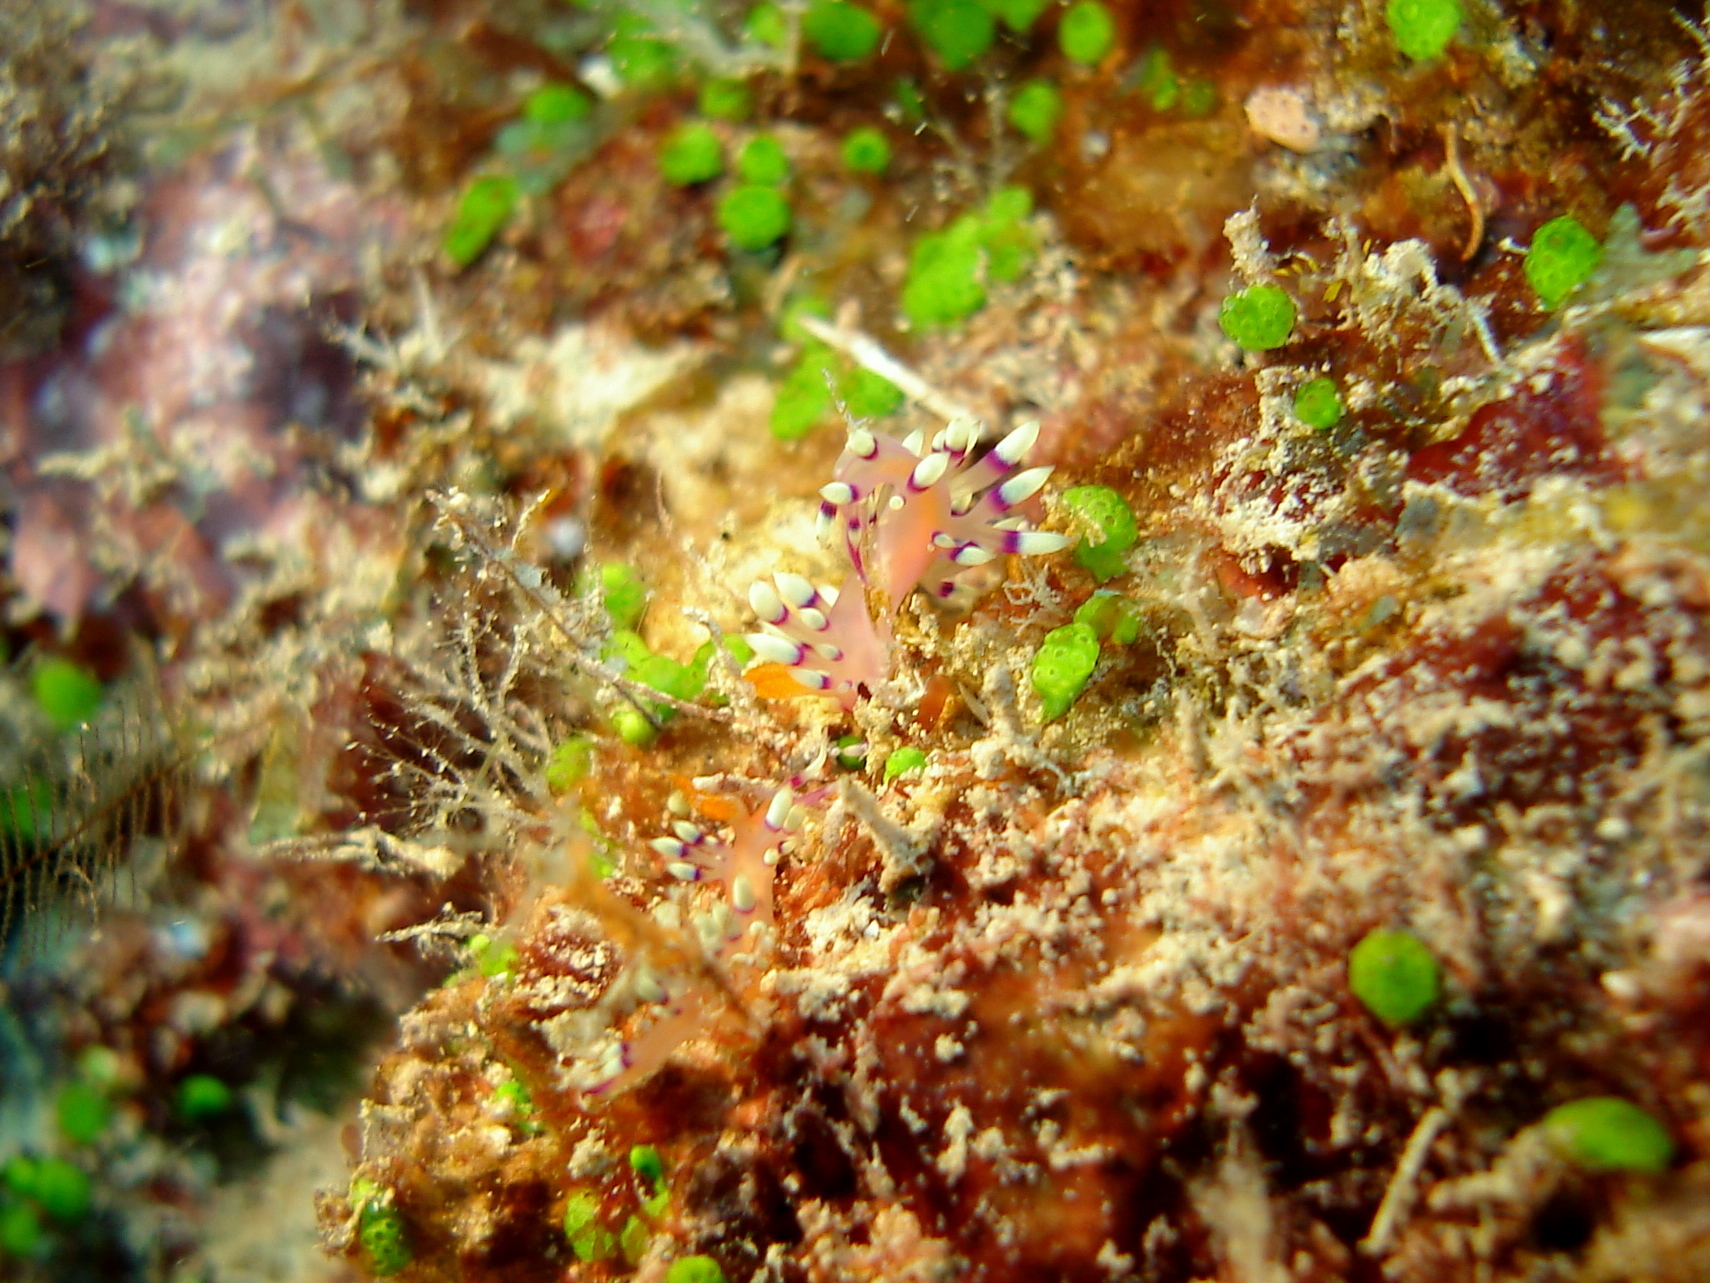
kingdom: Animalia
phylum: Mollusca
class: Gastropoda
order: Nudibranchia
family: Flabellinidae
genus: Coryphellina
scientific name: Coryphellina exoptata
